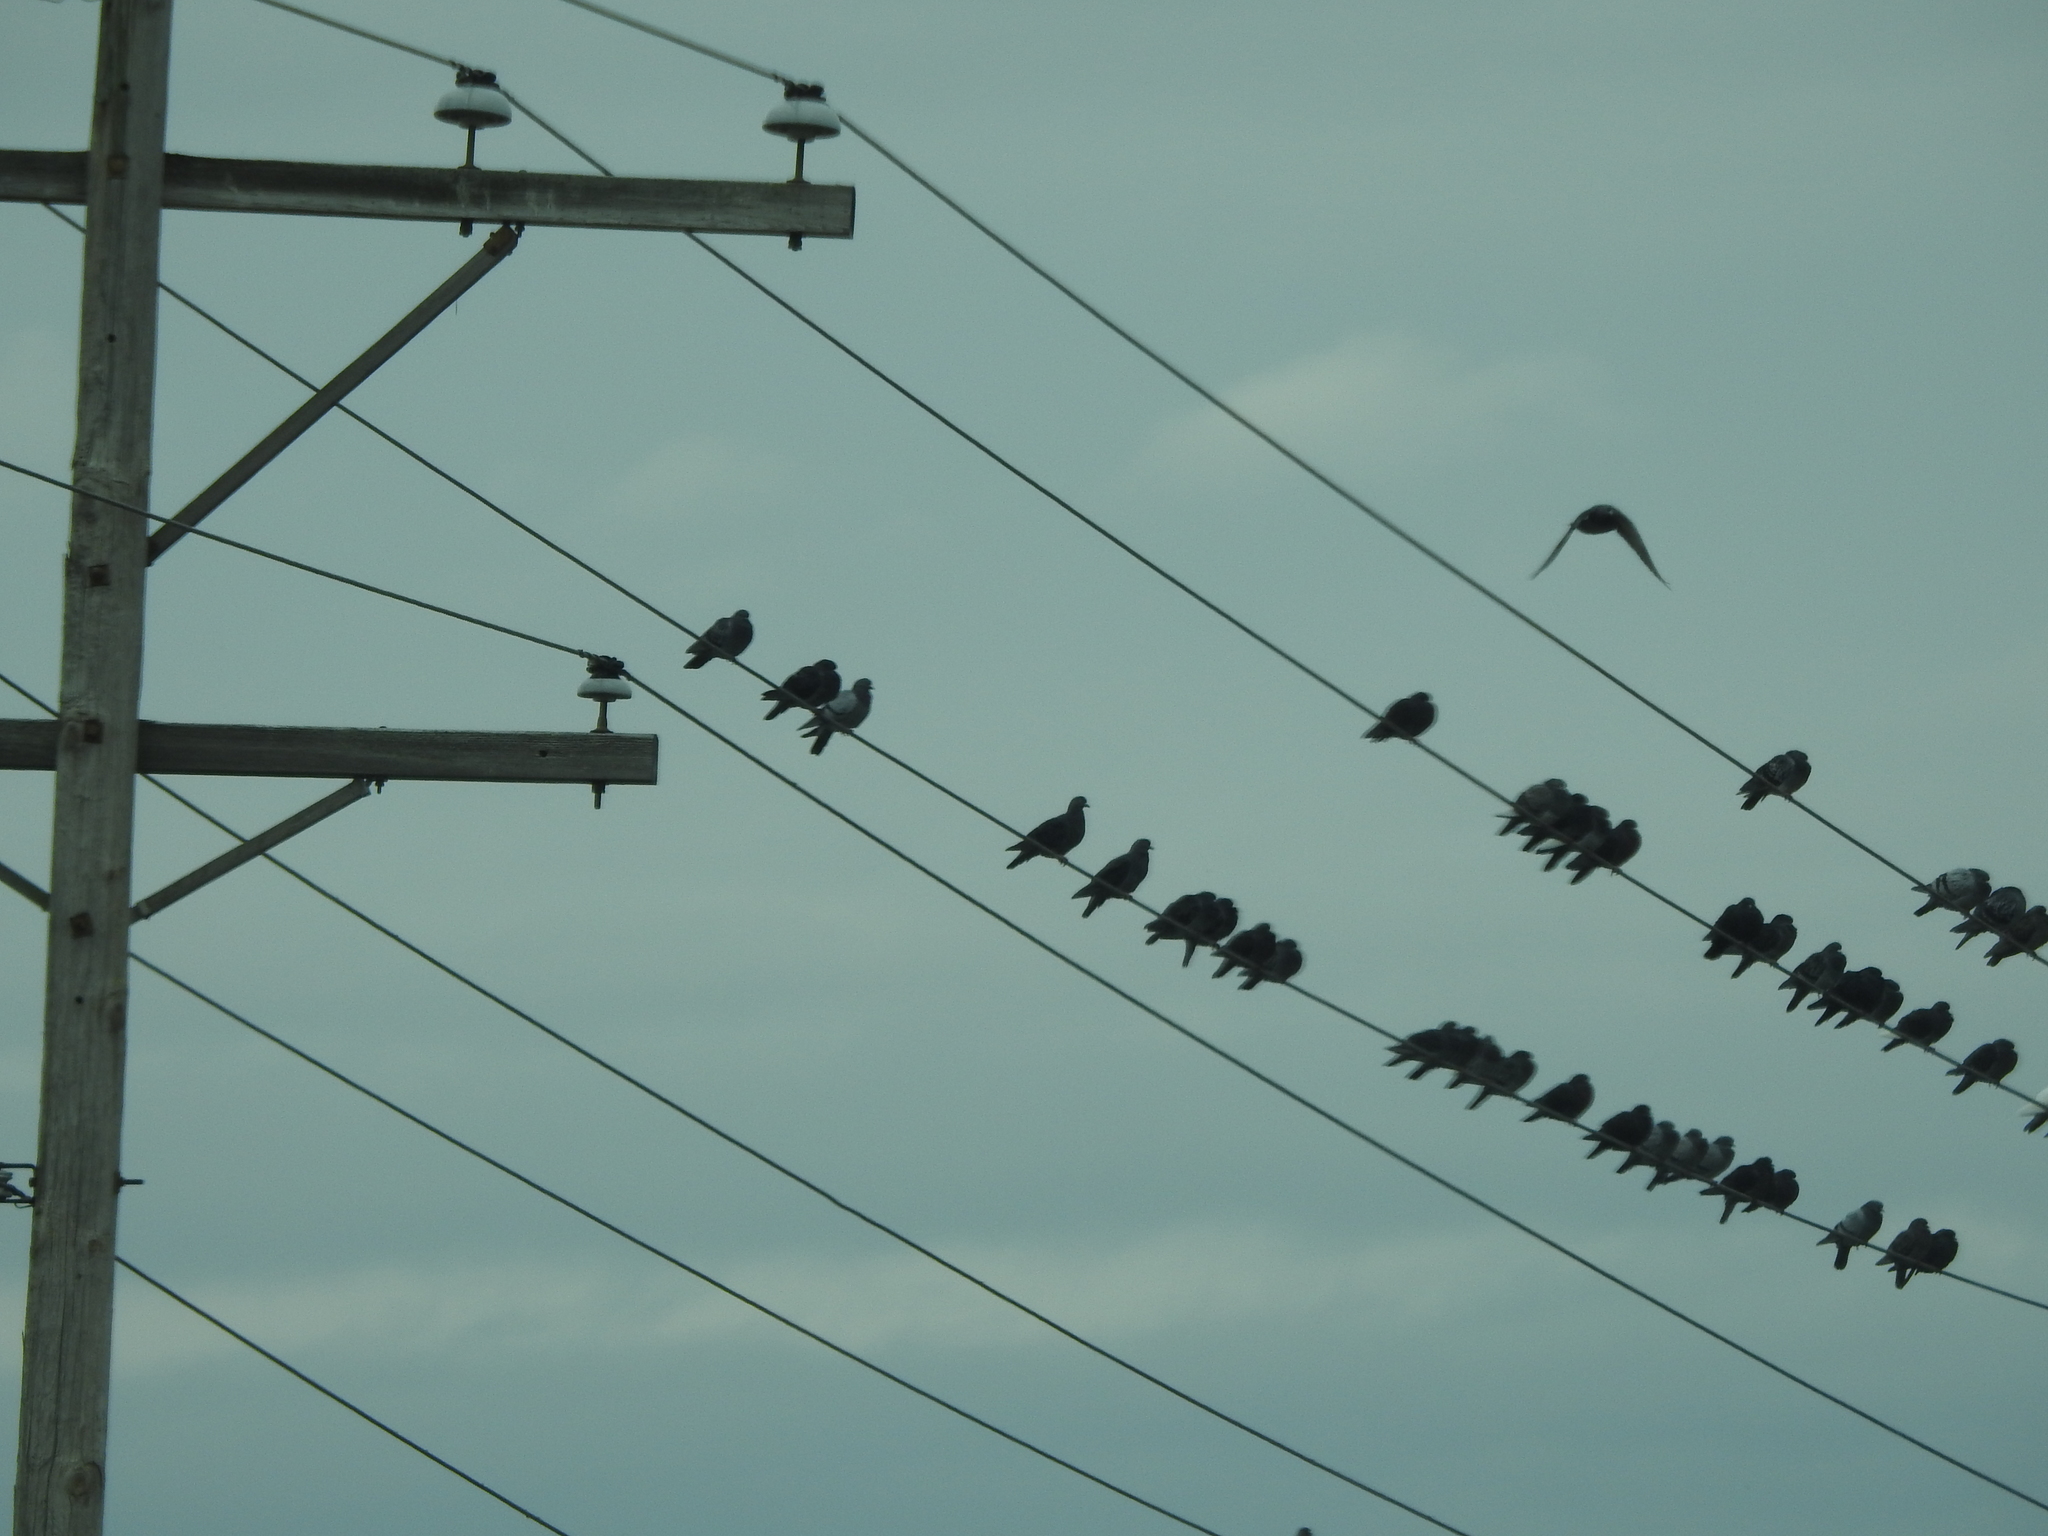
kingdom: Animalia
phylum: Chordata
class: Aves
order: Columbiformes
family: Columbidae
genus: Columba
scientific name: Columba livia
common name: Rock pigeon
